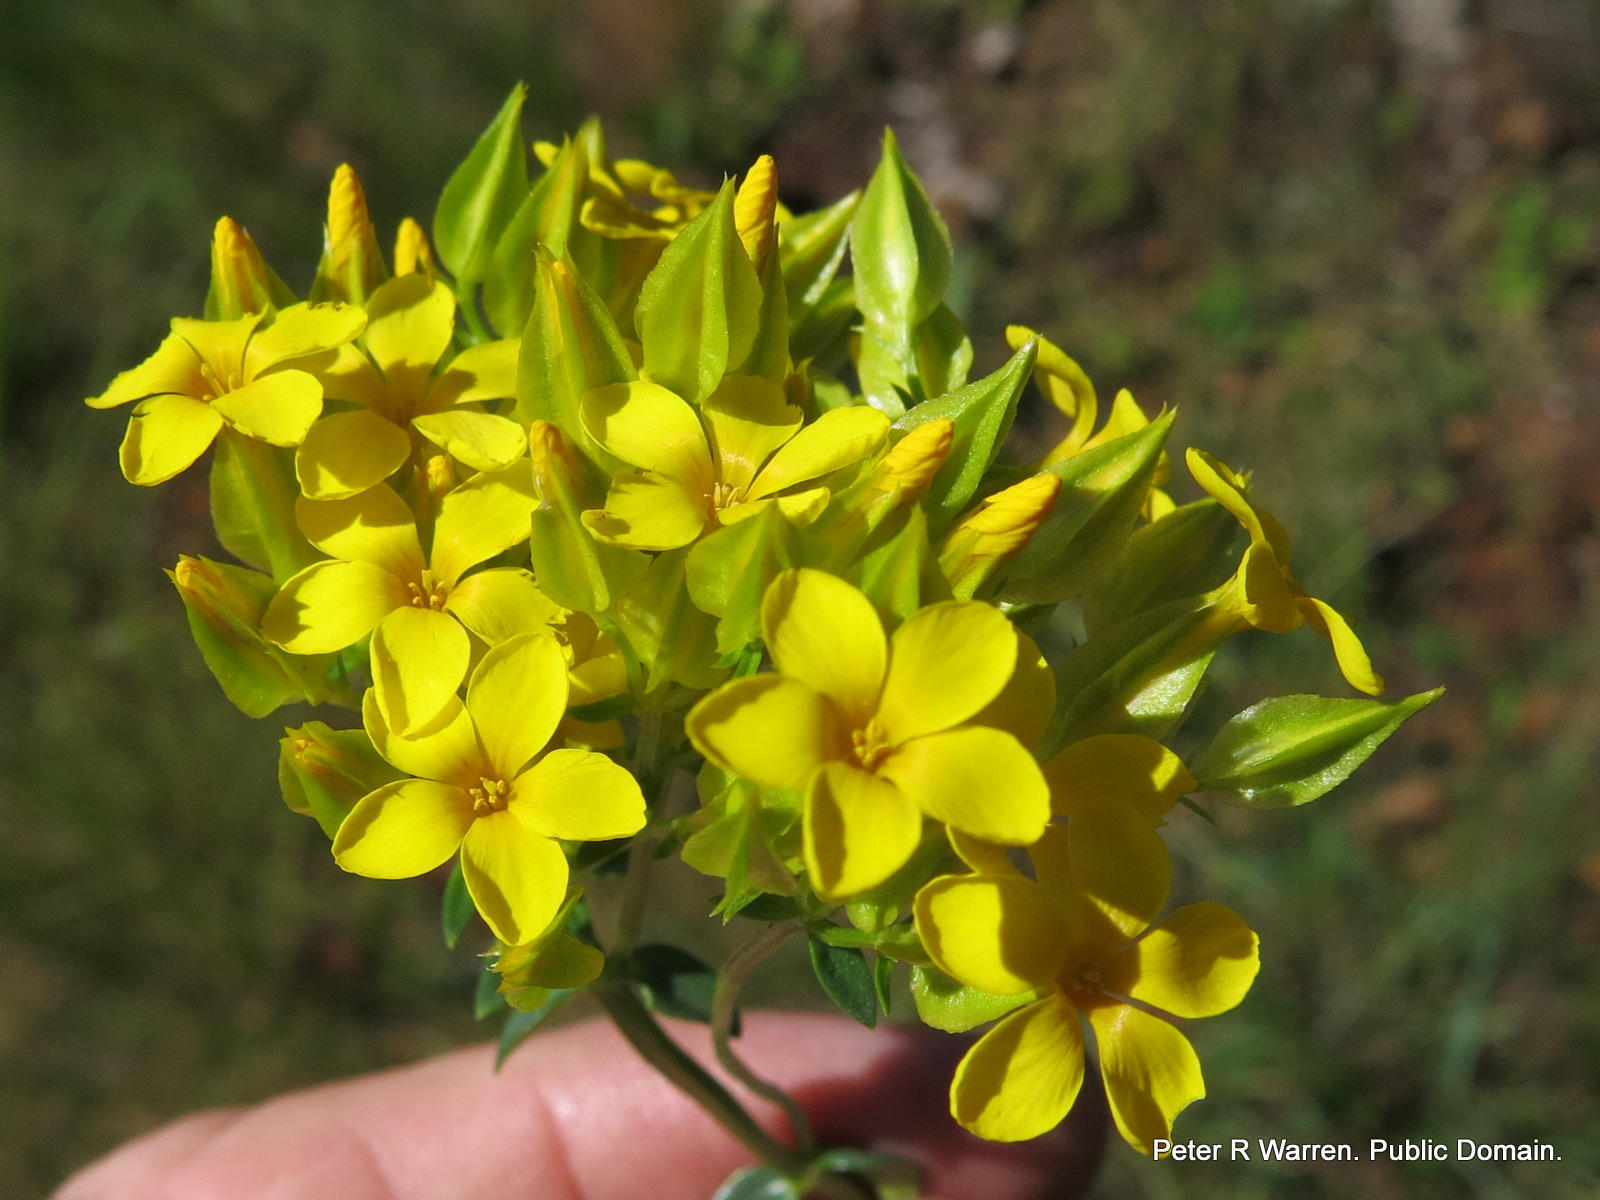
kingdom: Plantae
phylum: Tracheophyta
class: Magnoliopsida
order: Gentianales
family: Gentianaceae
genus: Sebaea
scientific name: Sebaea natalensis
